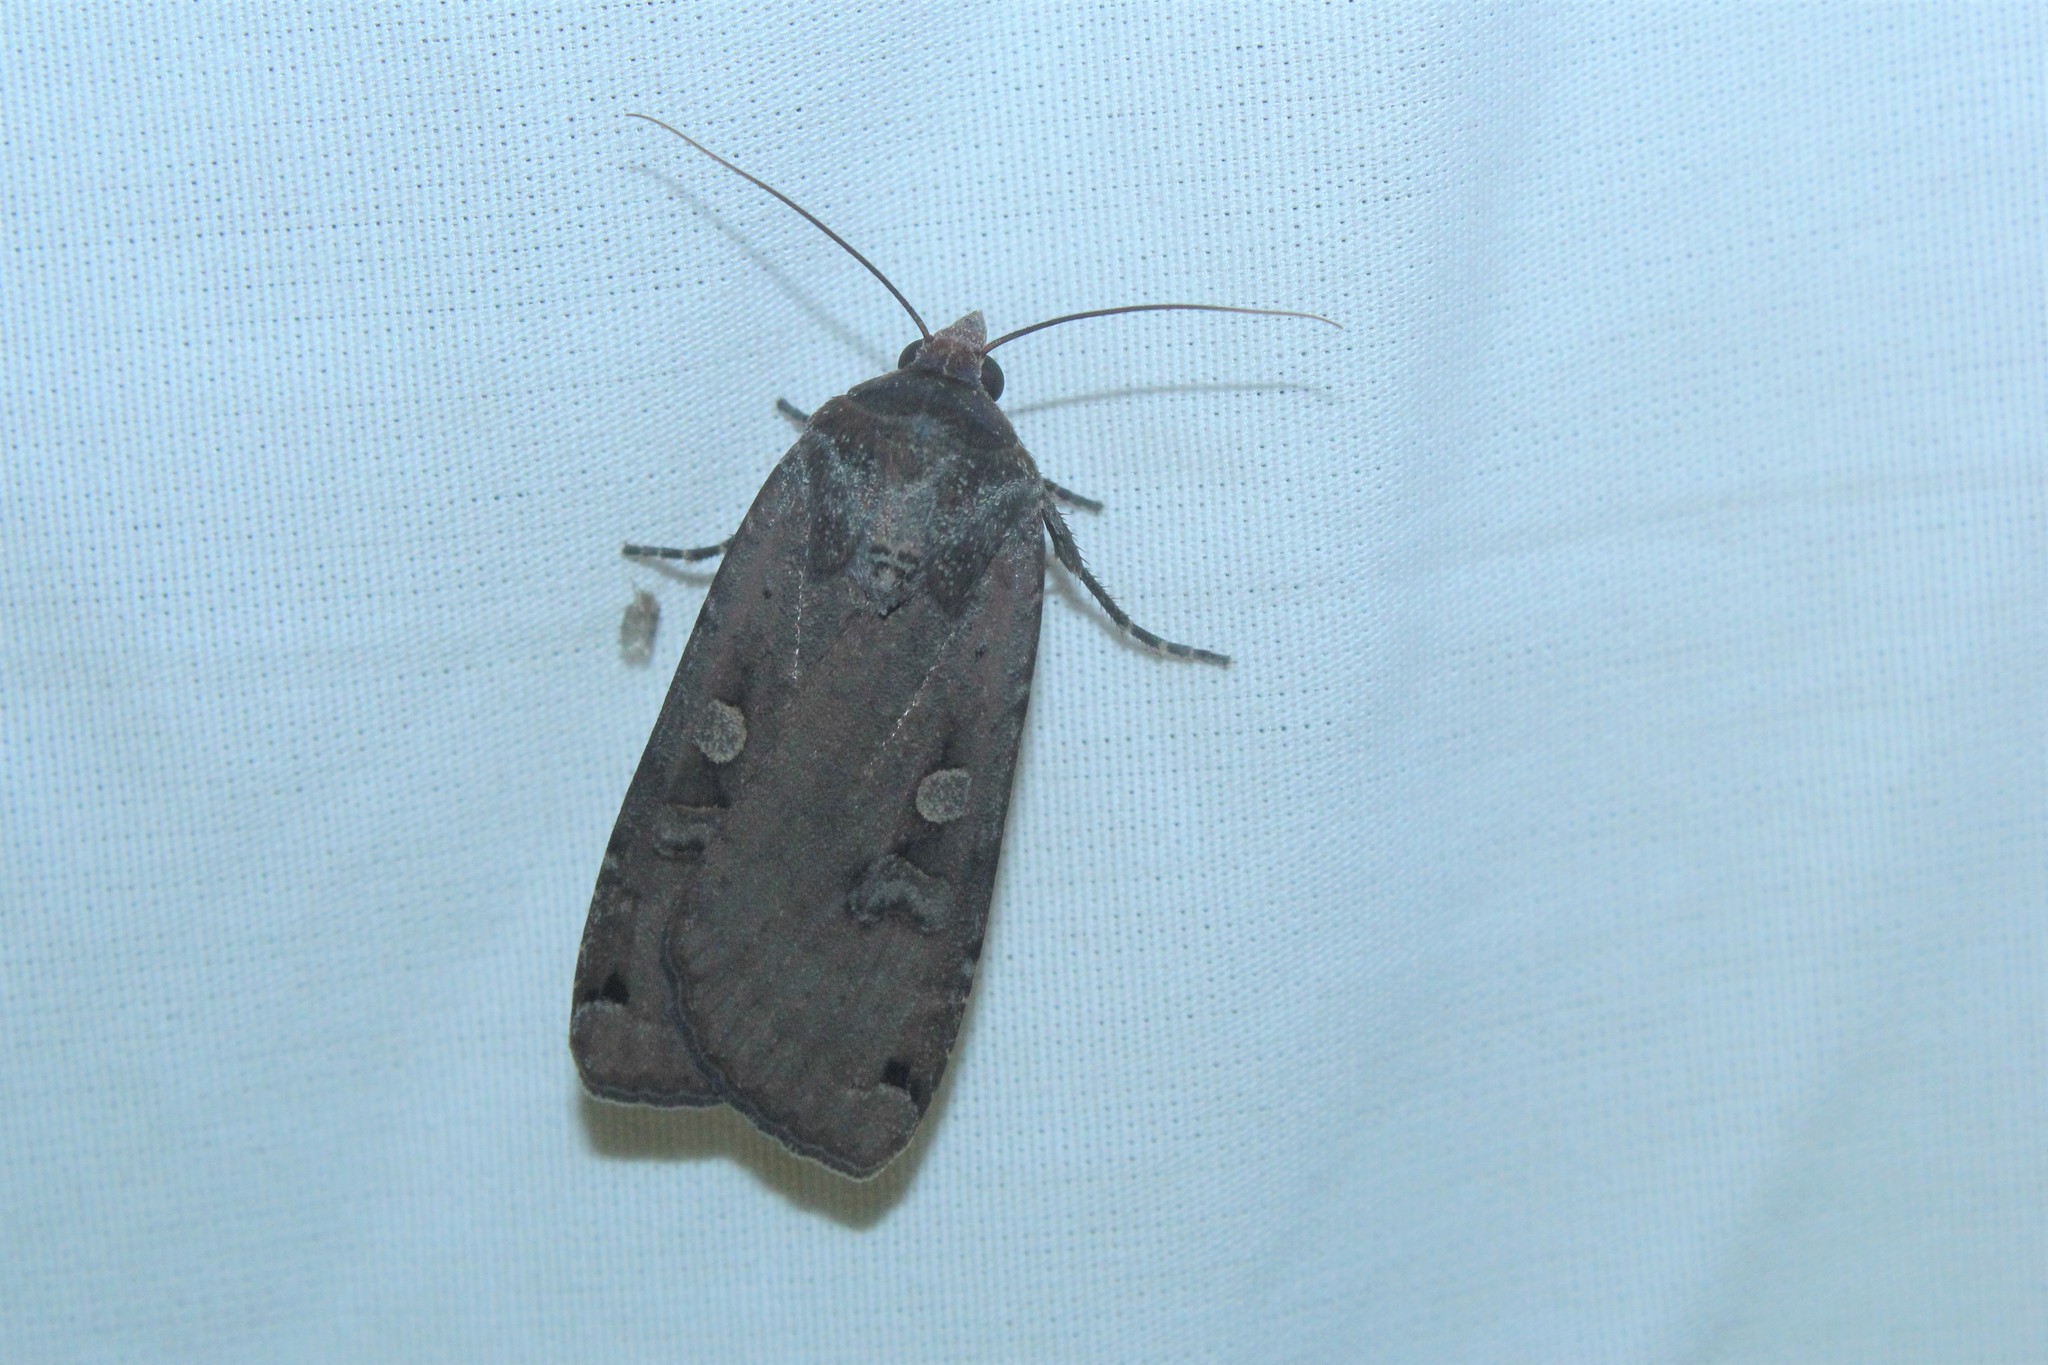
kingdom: Animalia
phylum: Arthropoda
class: Insecta
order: Lepidoptera
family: Noctuidae
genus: Noctua
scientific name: Noctua pronuba
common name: Large yellow underwing
